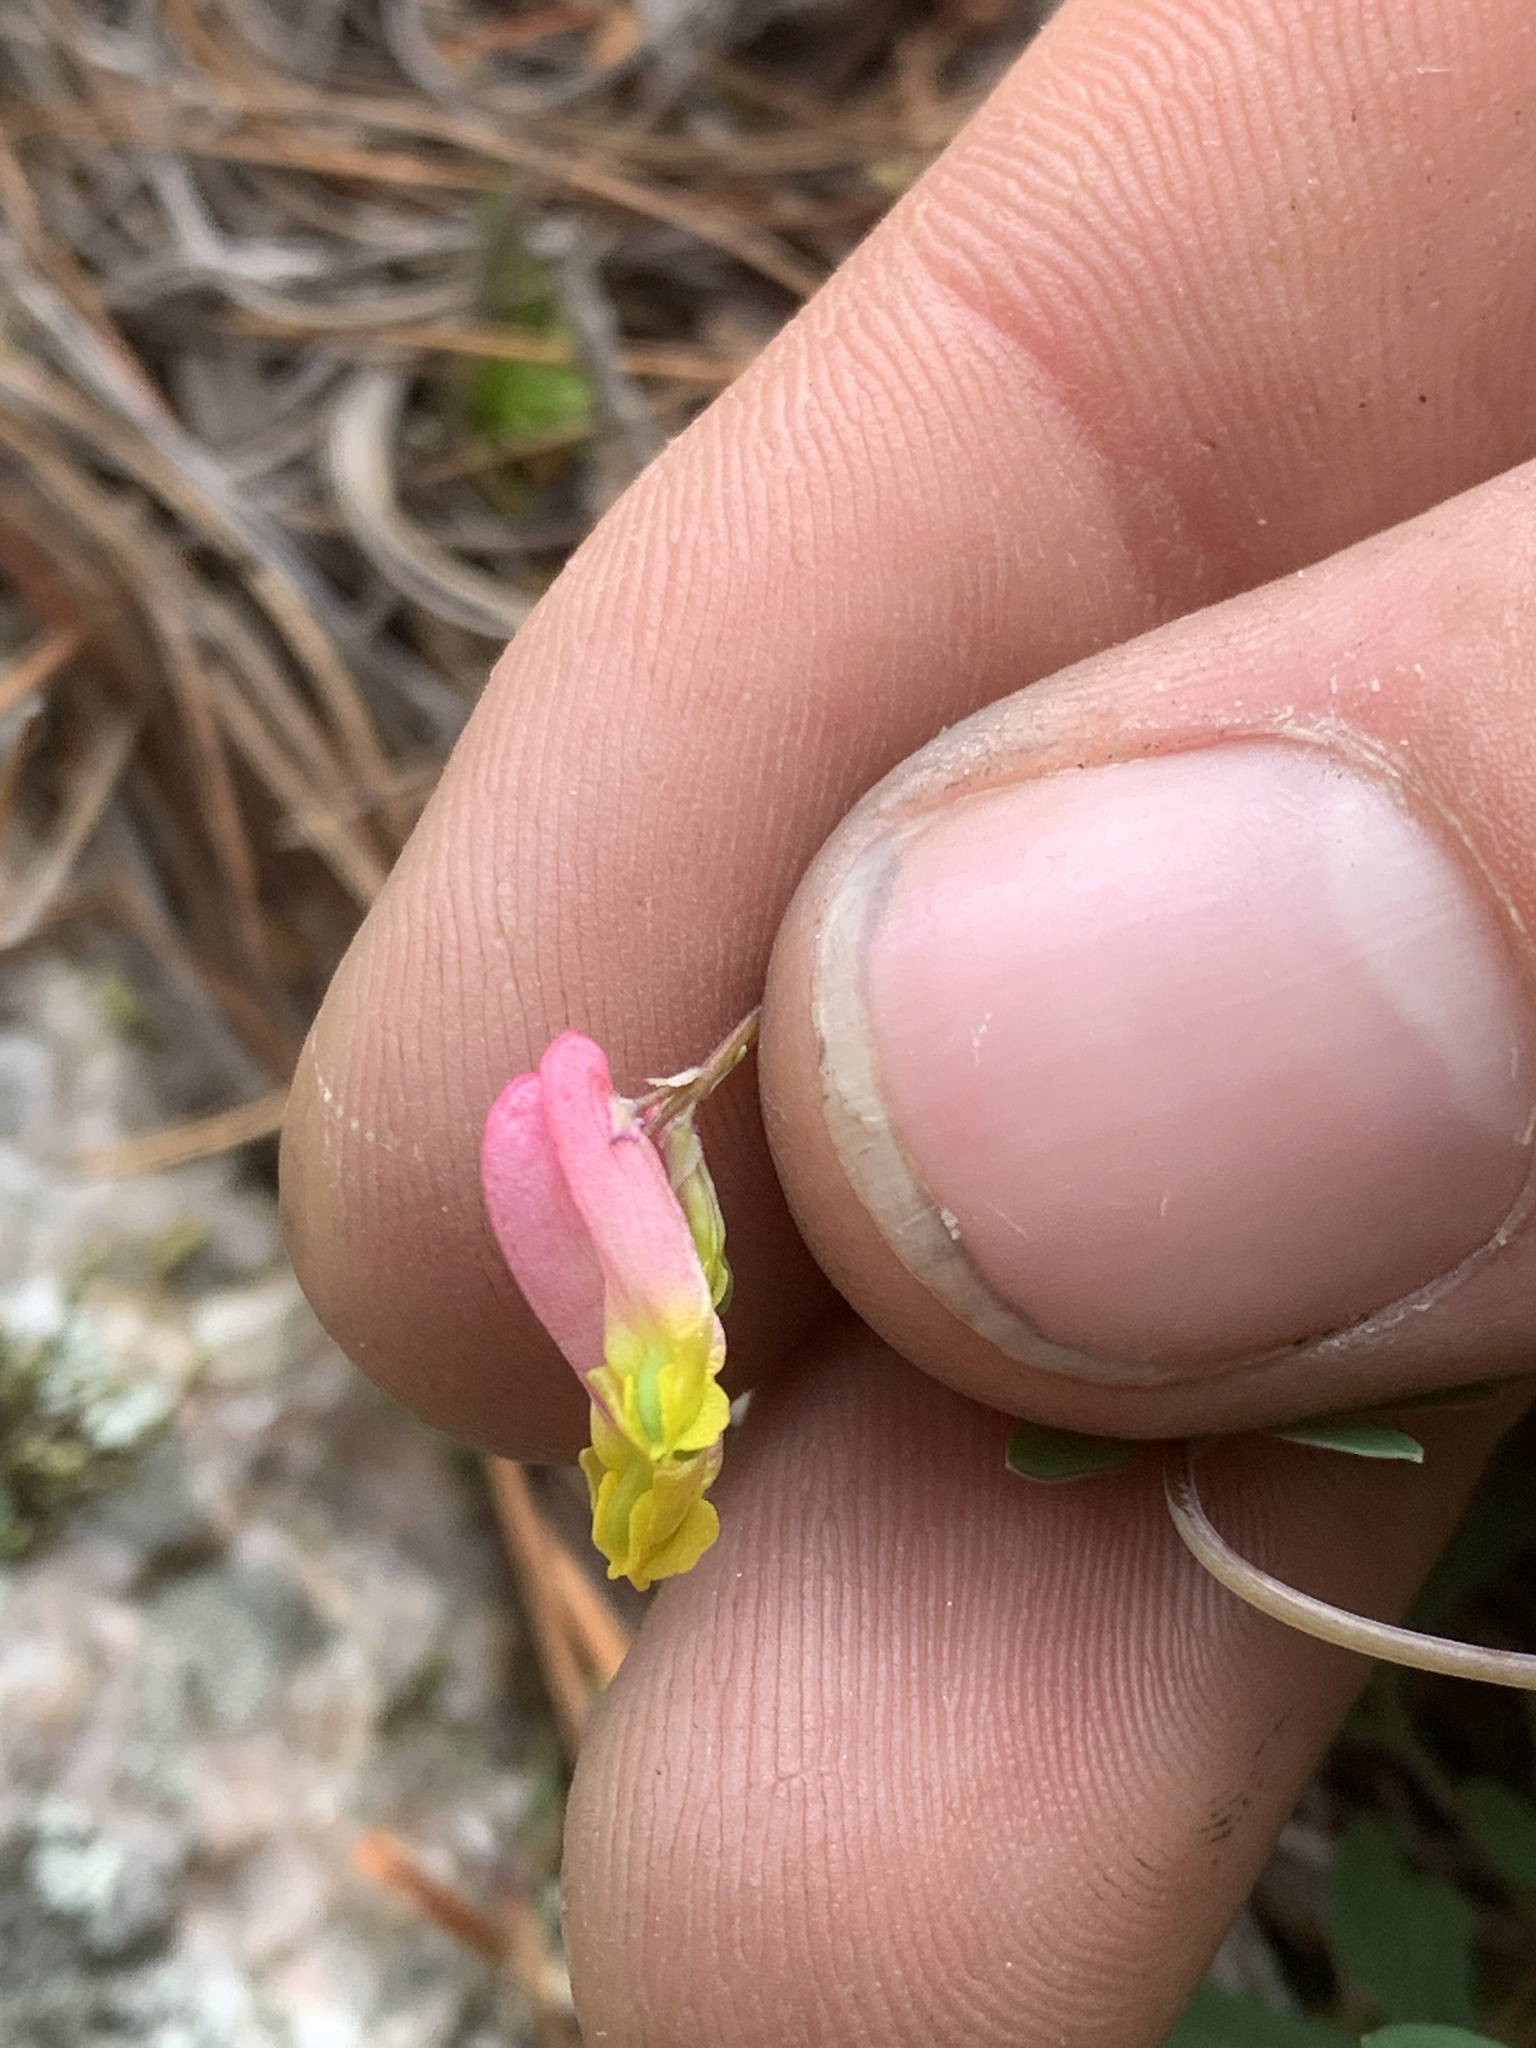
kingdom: Plantae
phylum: Tracheophyta
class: Magnoliopsida
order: Ranunculales
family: Papaveraceae
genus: Capnoides
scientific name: Capnoides sempervirens
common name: Rock harlequin
